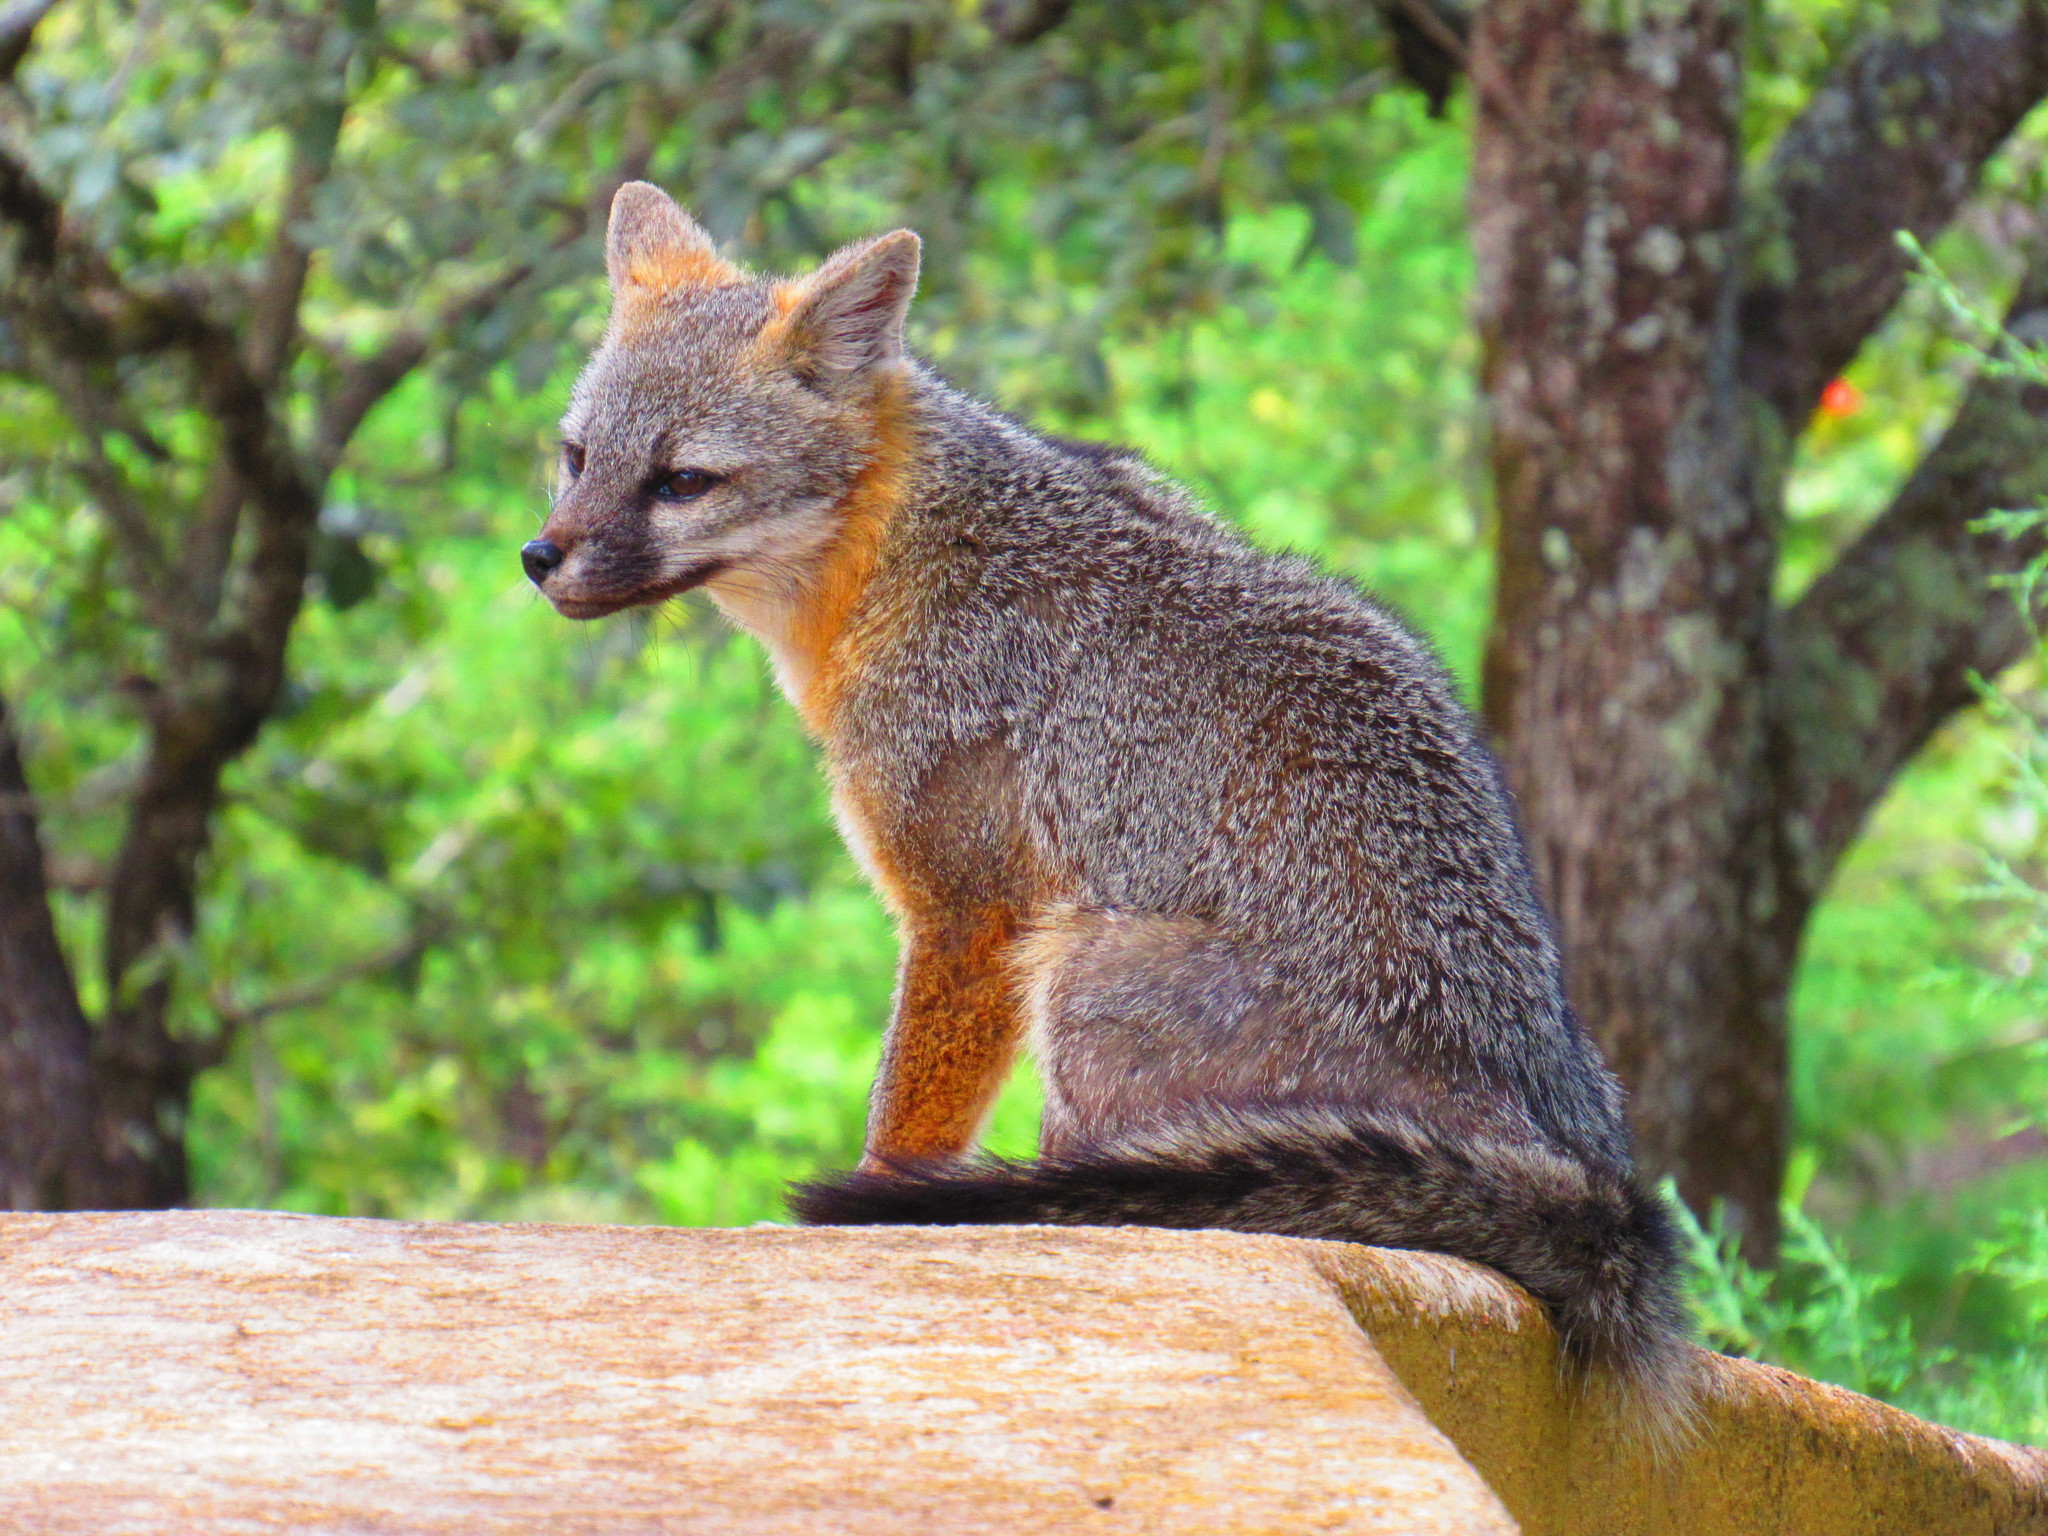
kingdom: Animalia
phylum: Chordata
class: Mammalia
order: Carnivora
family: Canidae
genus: Urocyon
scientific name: Urocyon cinereoargenteus
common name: Gray fox
